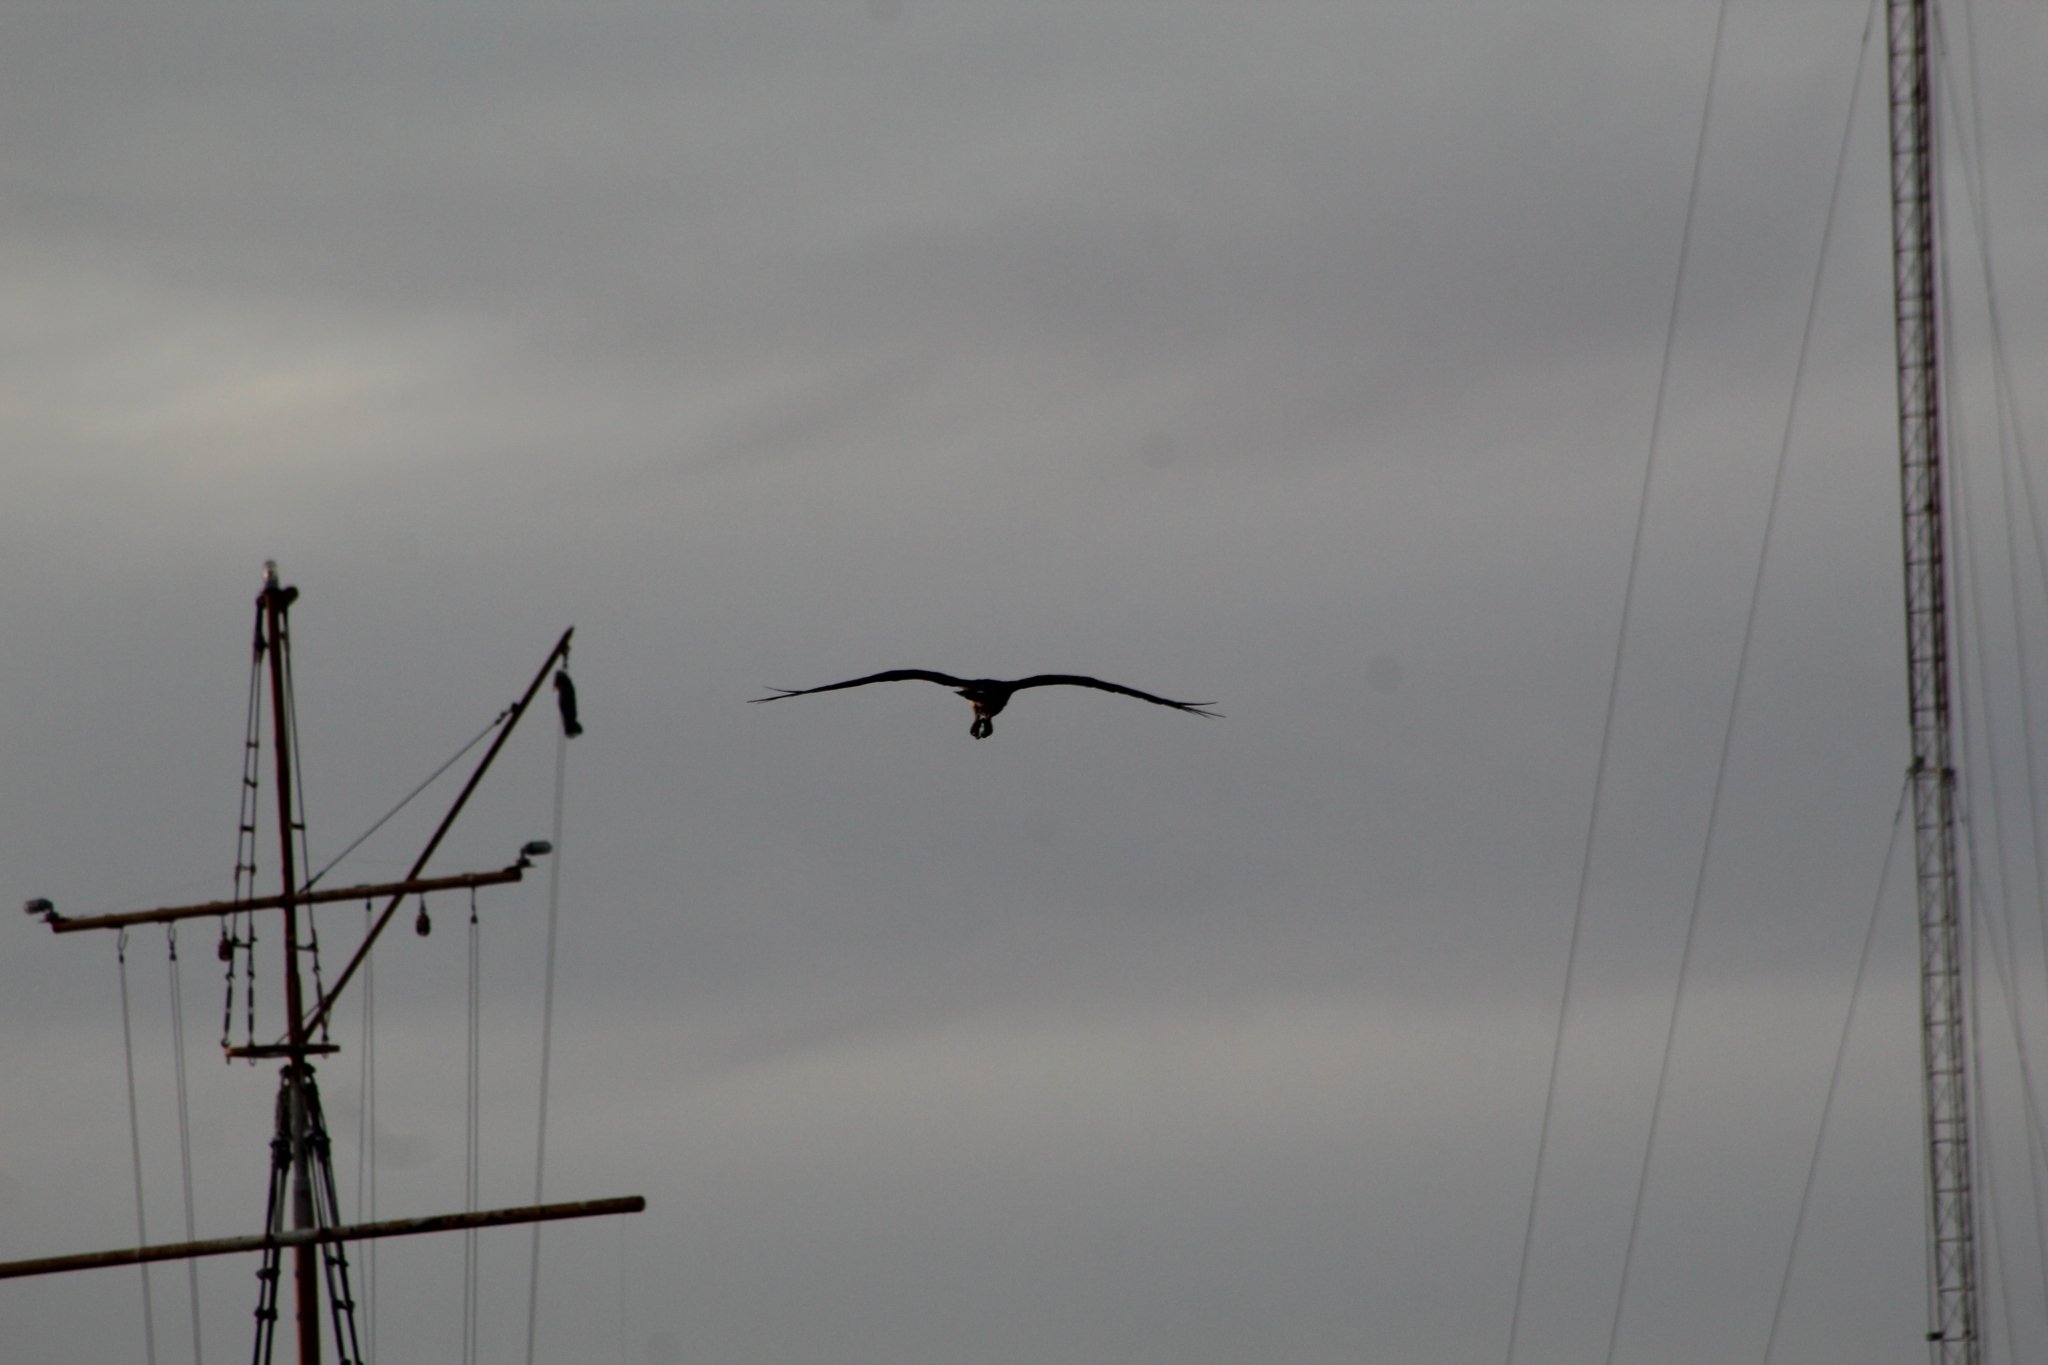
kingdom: Animalia
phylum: Chordata
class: Aves
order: Accipitriformes
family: Pandionidae
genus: Pandion
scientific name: Pandion haliaetus
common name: Osprey
